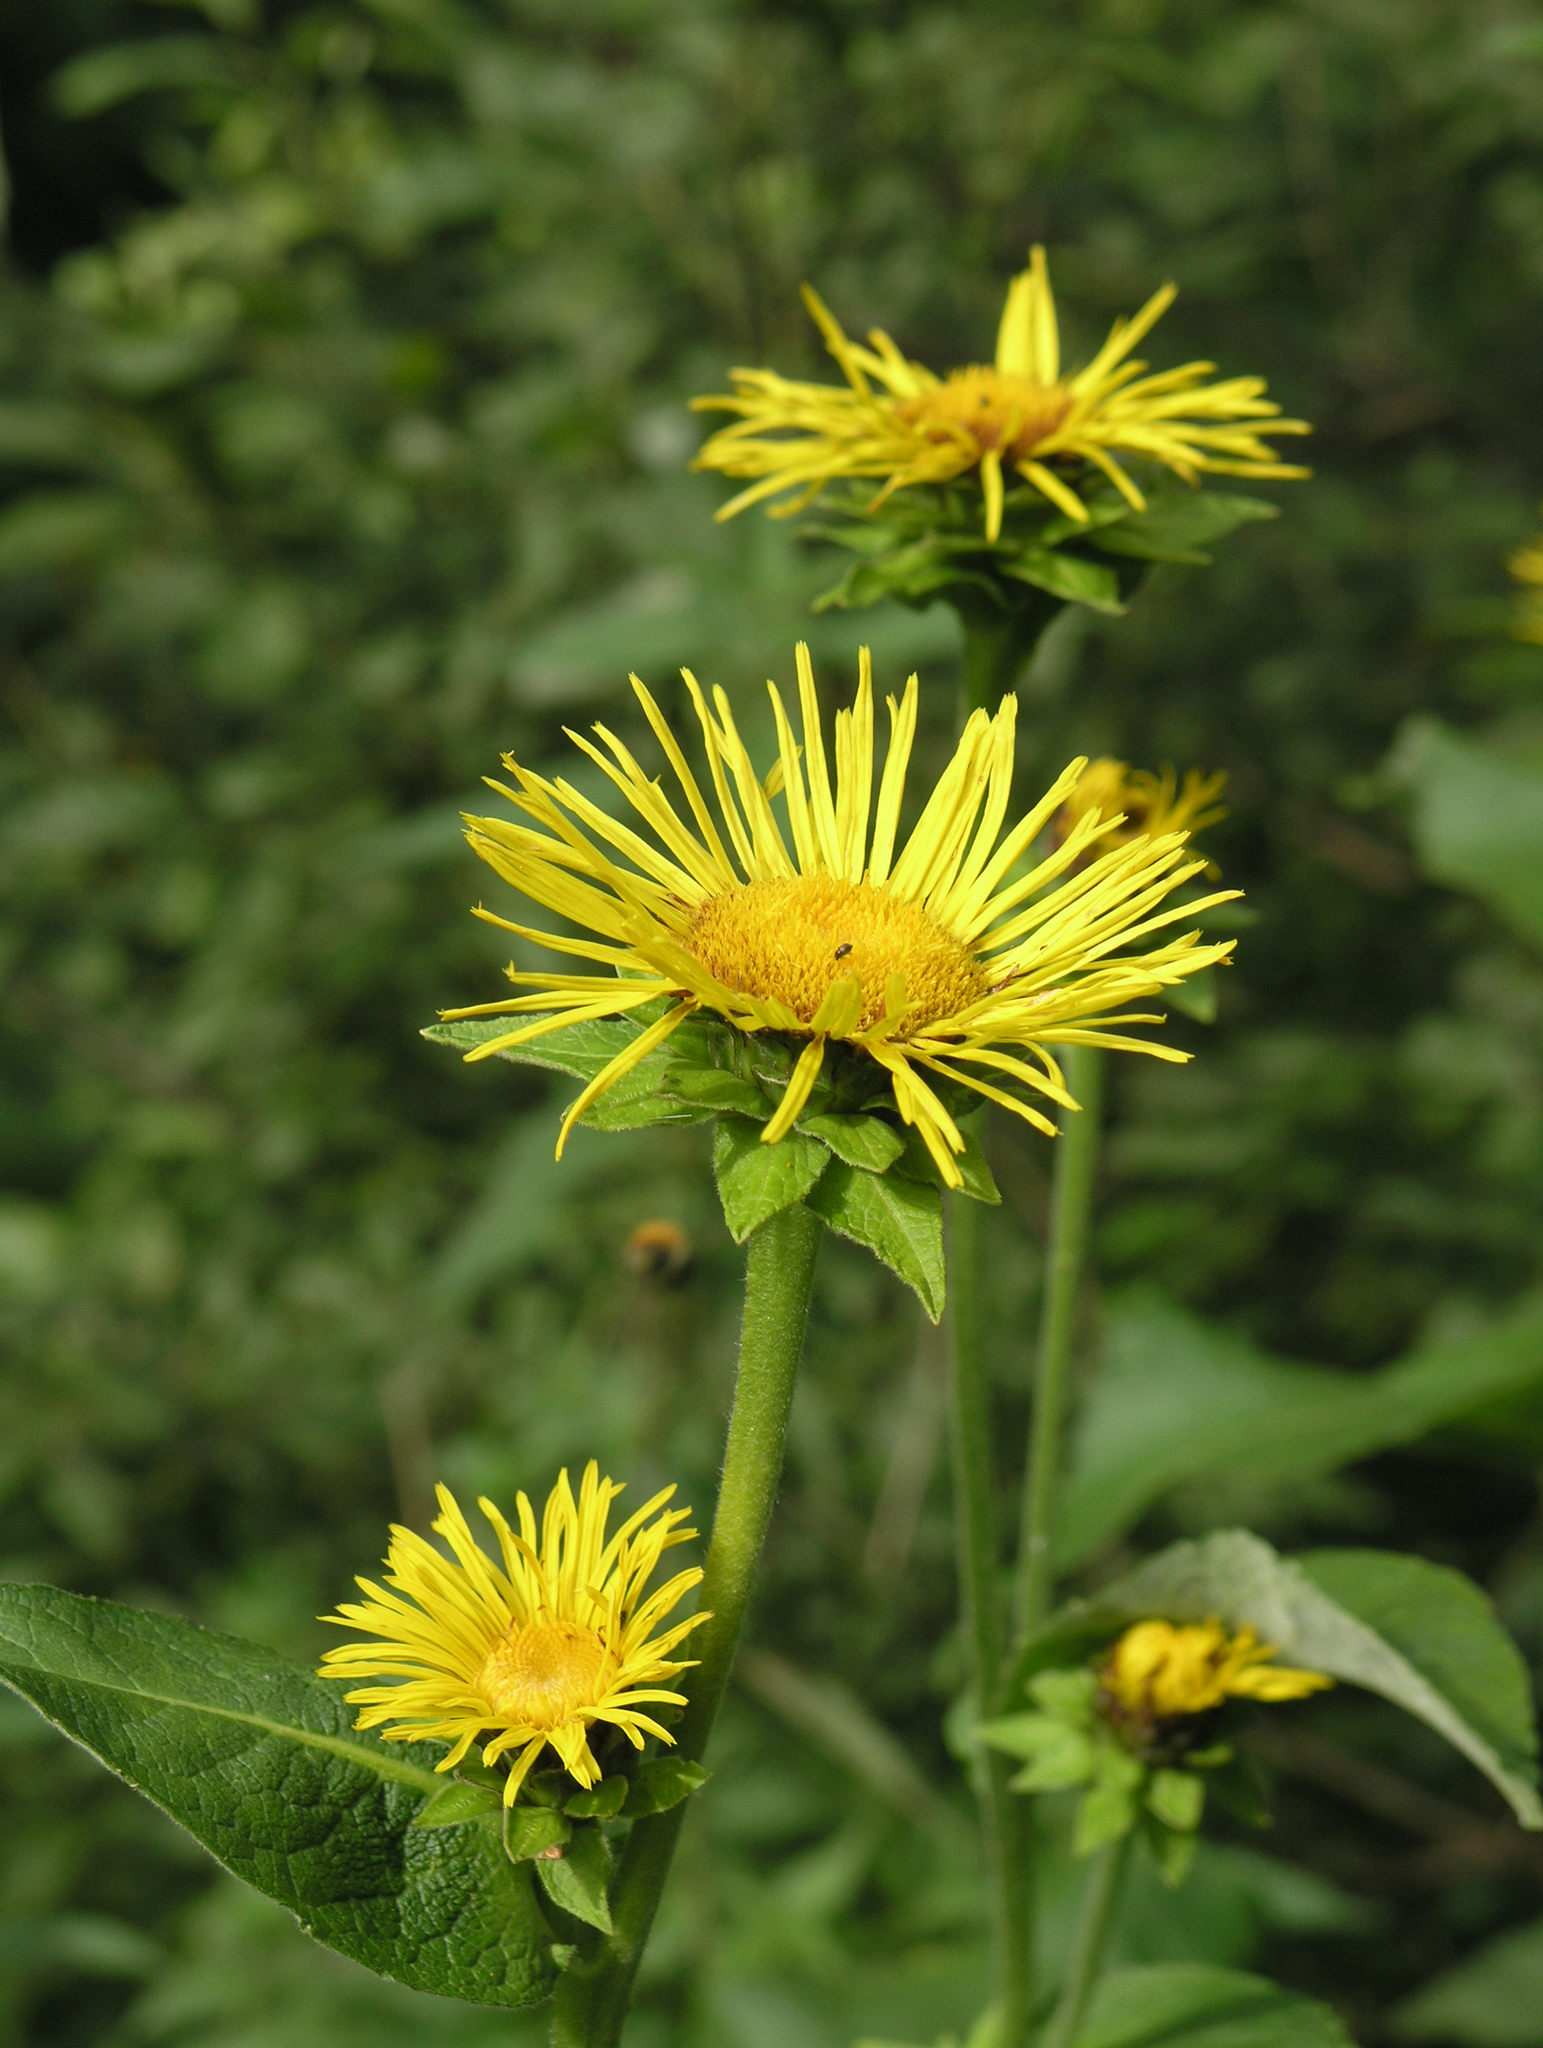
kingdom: Plantae
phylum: Tracheophyta
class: Magnoliopsida
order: Asterales
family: Asteraceae
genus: Inula
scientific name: Inula helenium
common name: Elecampane
